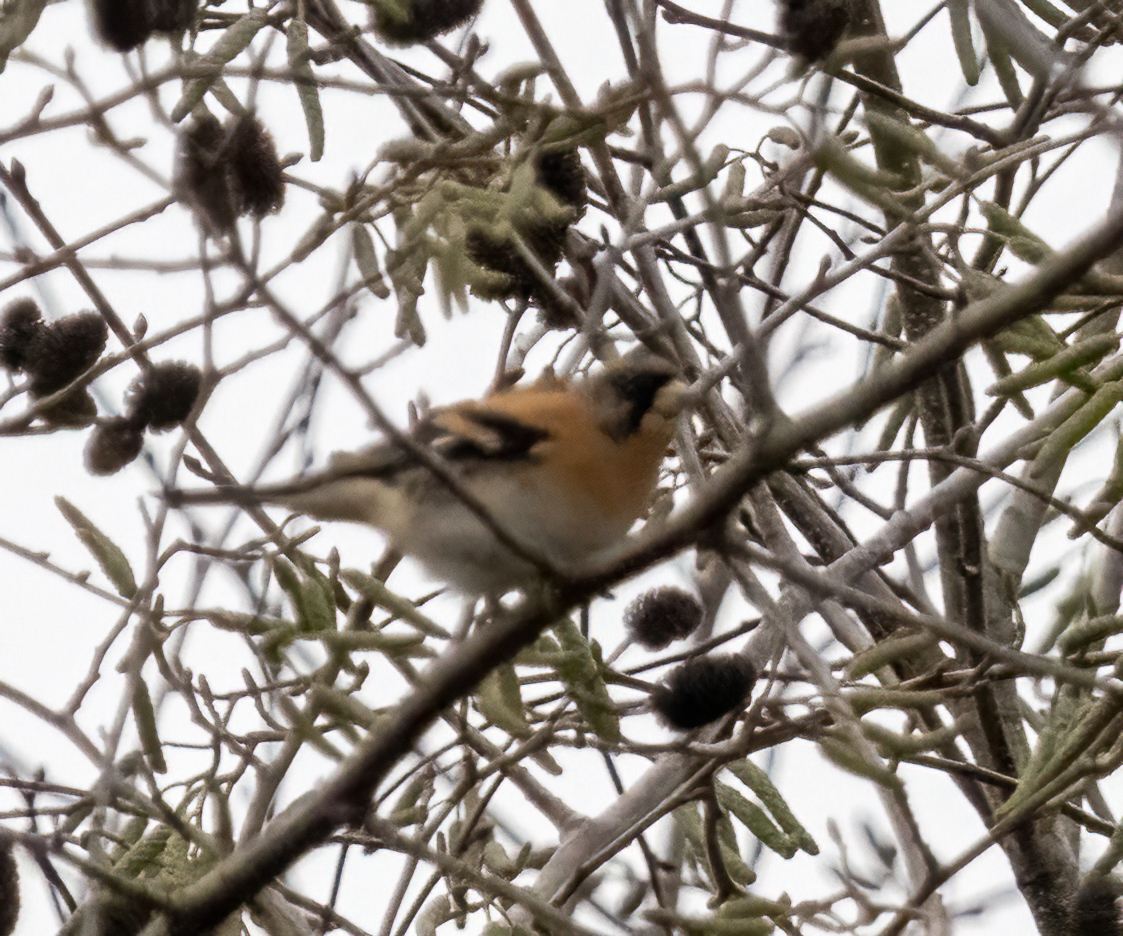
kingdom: Animalia
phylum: Chordata
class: Aves
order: Passeriformes
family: Fringillidae
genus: Fringilla
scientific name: Fringilla montifringilla
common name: Brambling
